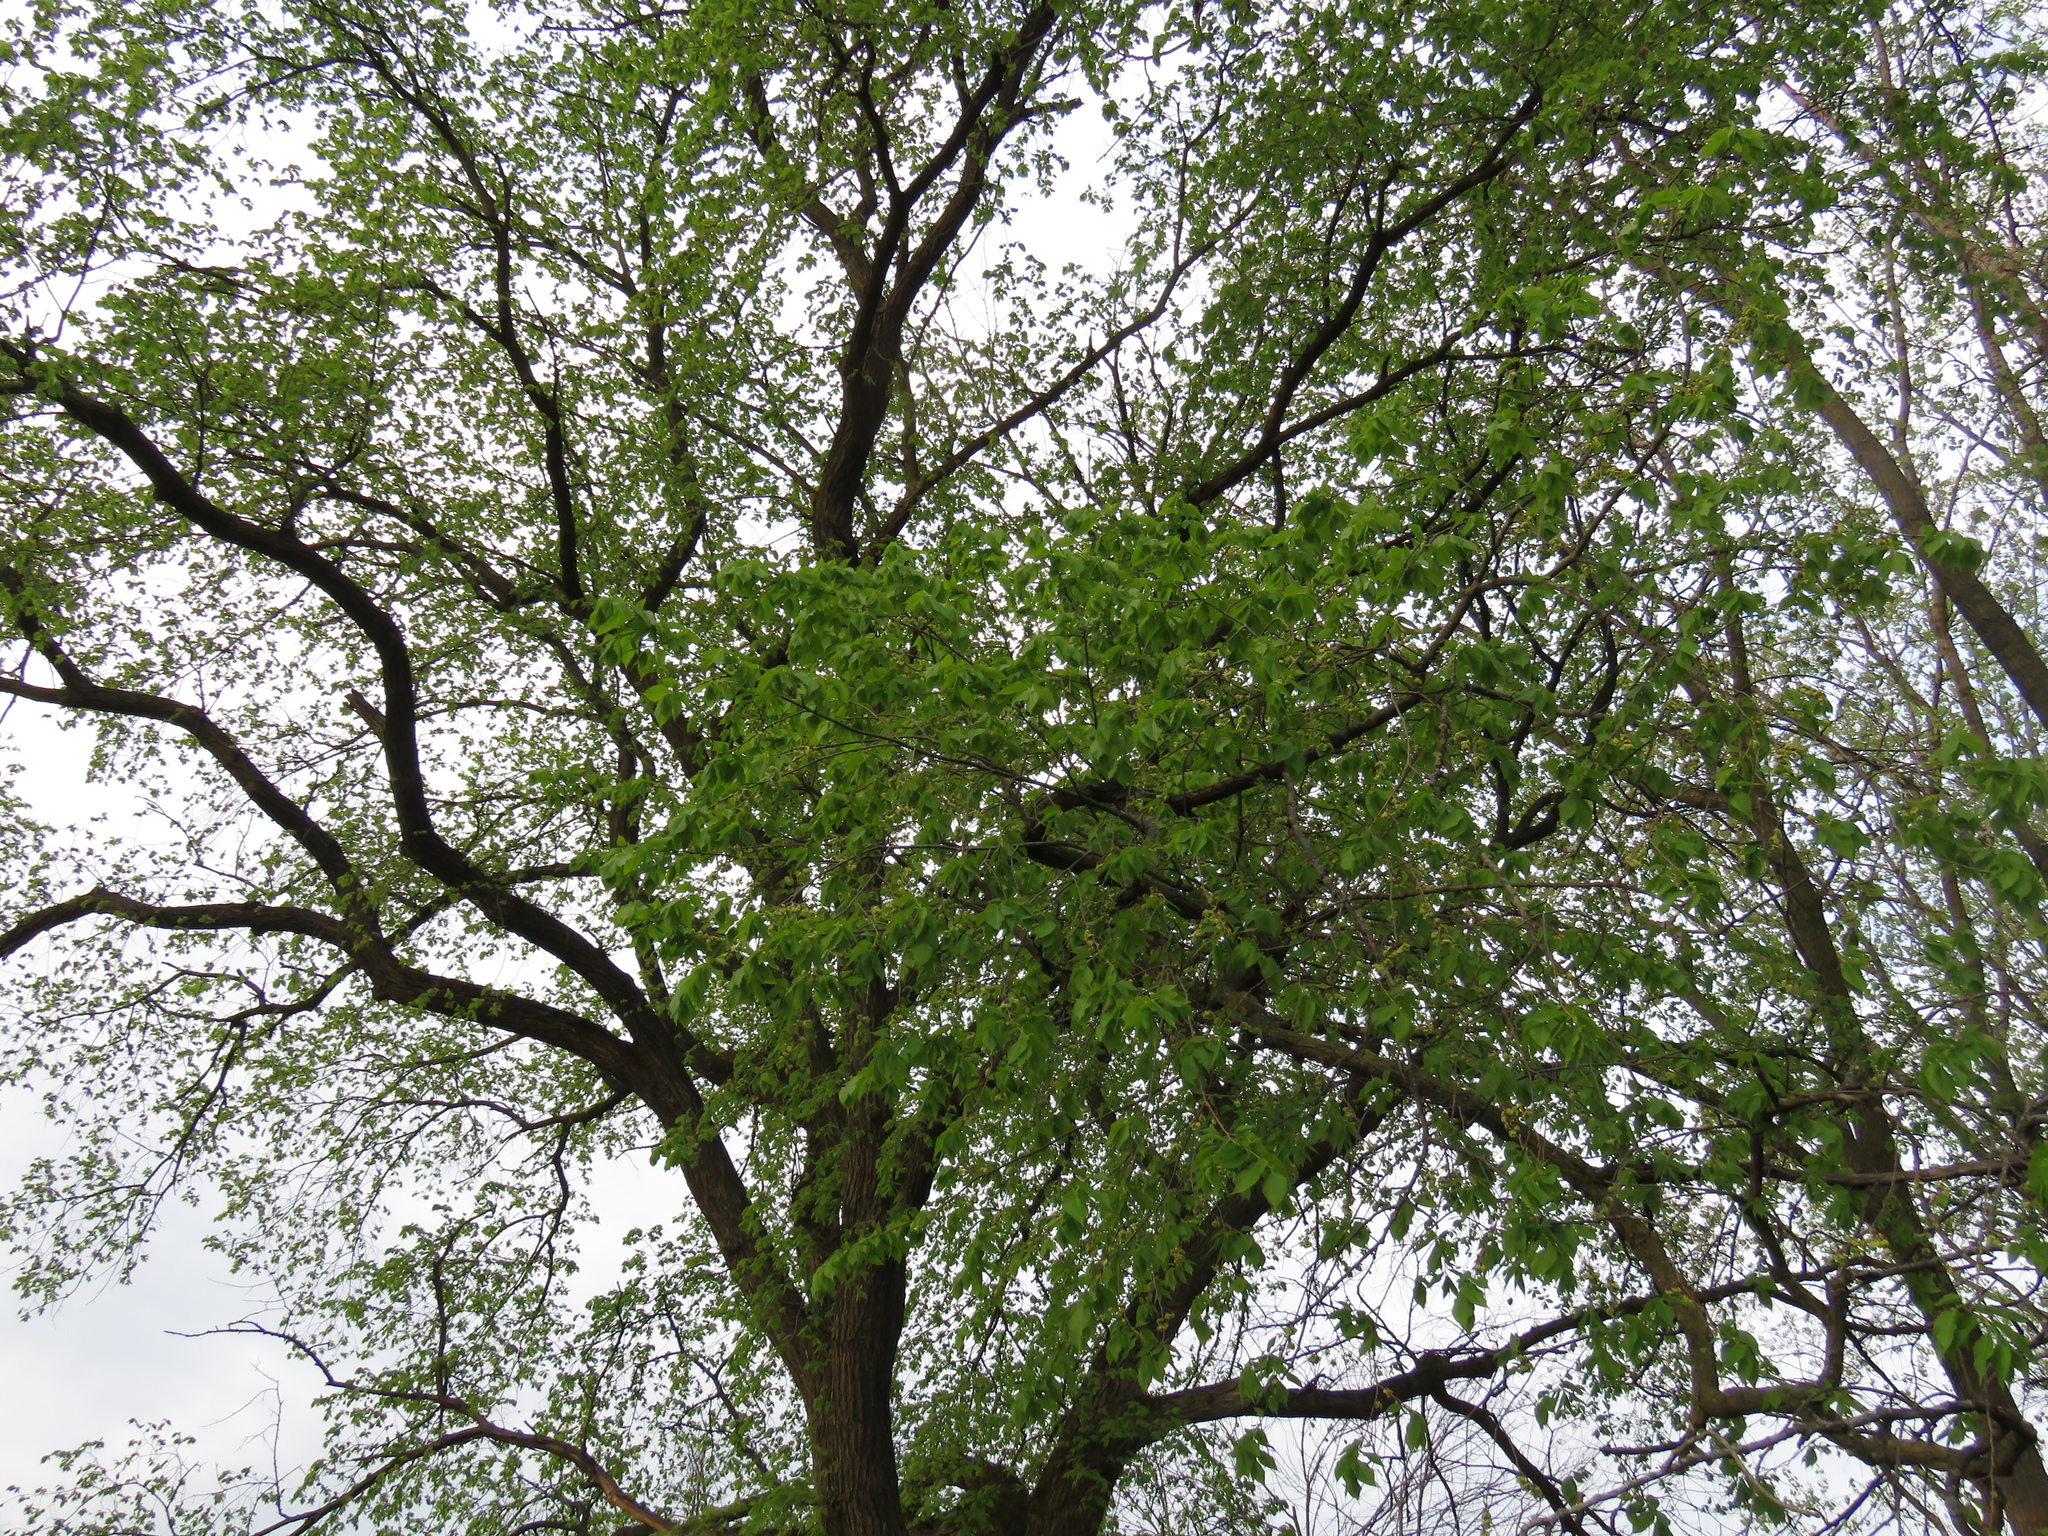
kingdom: Plantae
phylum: Tracheophyta
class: Magnoliopsida
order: Rosales
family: Ulmaceae
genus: Ulmus
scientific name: Ulmus americana
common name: American elm
